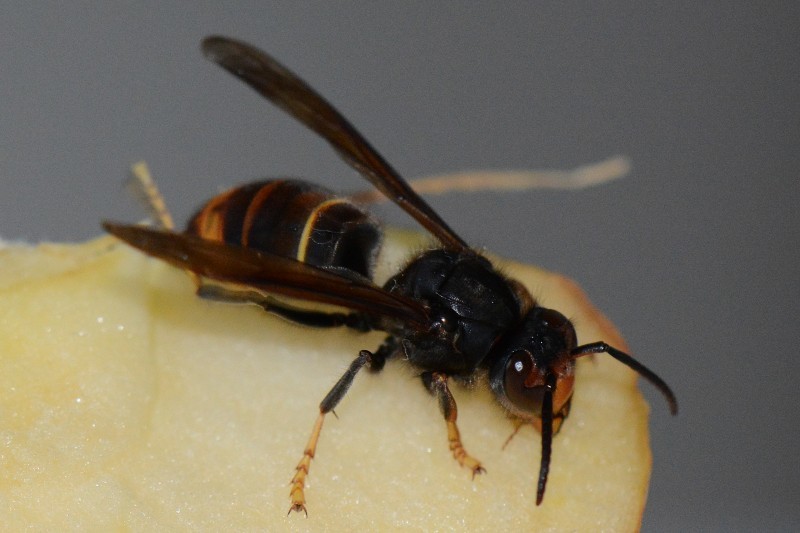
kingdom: Animalia
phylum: Arthropoda
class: Insecta
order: Hymenoptera
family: Vespidae
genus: Vespa
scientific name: Vespa velutina
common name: Asian hornet
